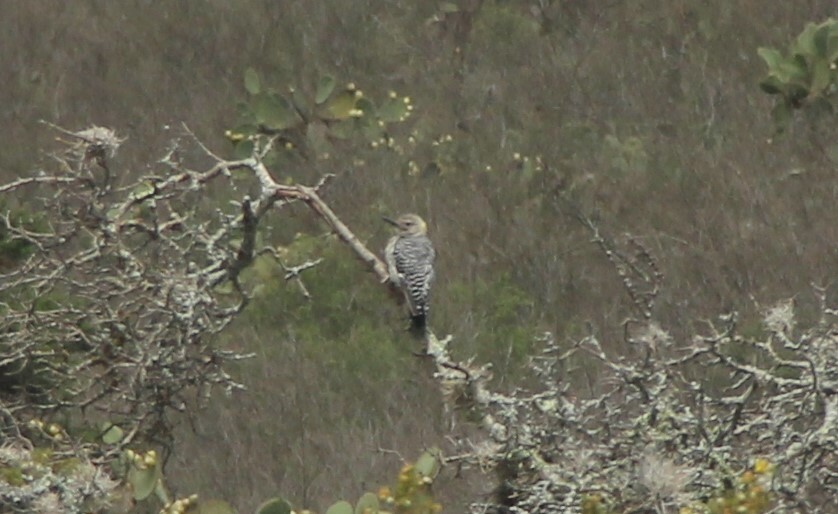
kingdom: Animalia
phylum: Chordata
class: Aves
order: Piciformes
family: Picidae
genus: Melanerpes
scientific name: Melanerpes aurifrons
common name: Golden-fronted woodpecker
